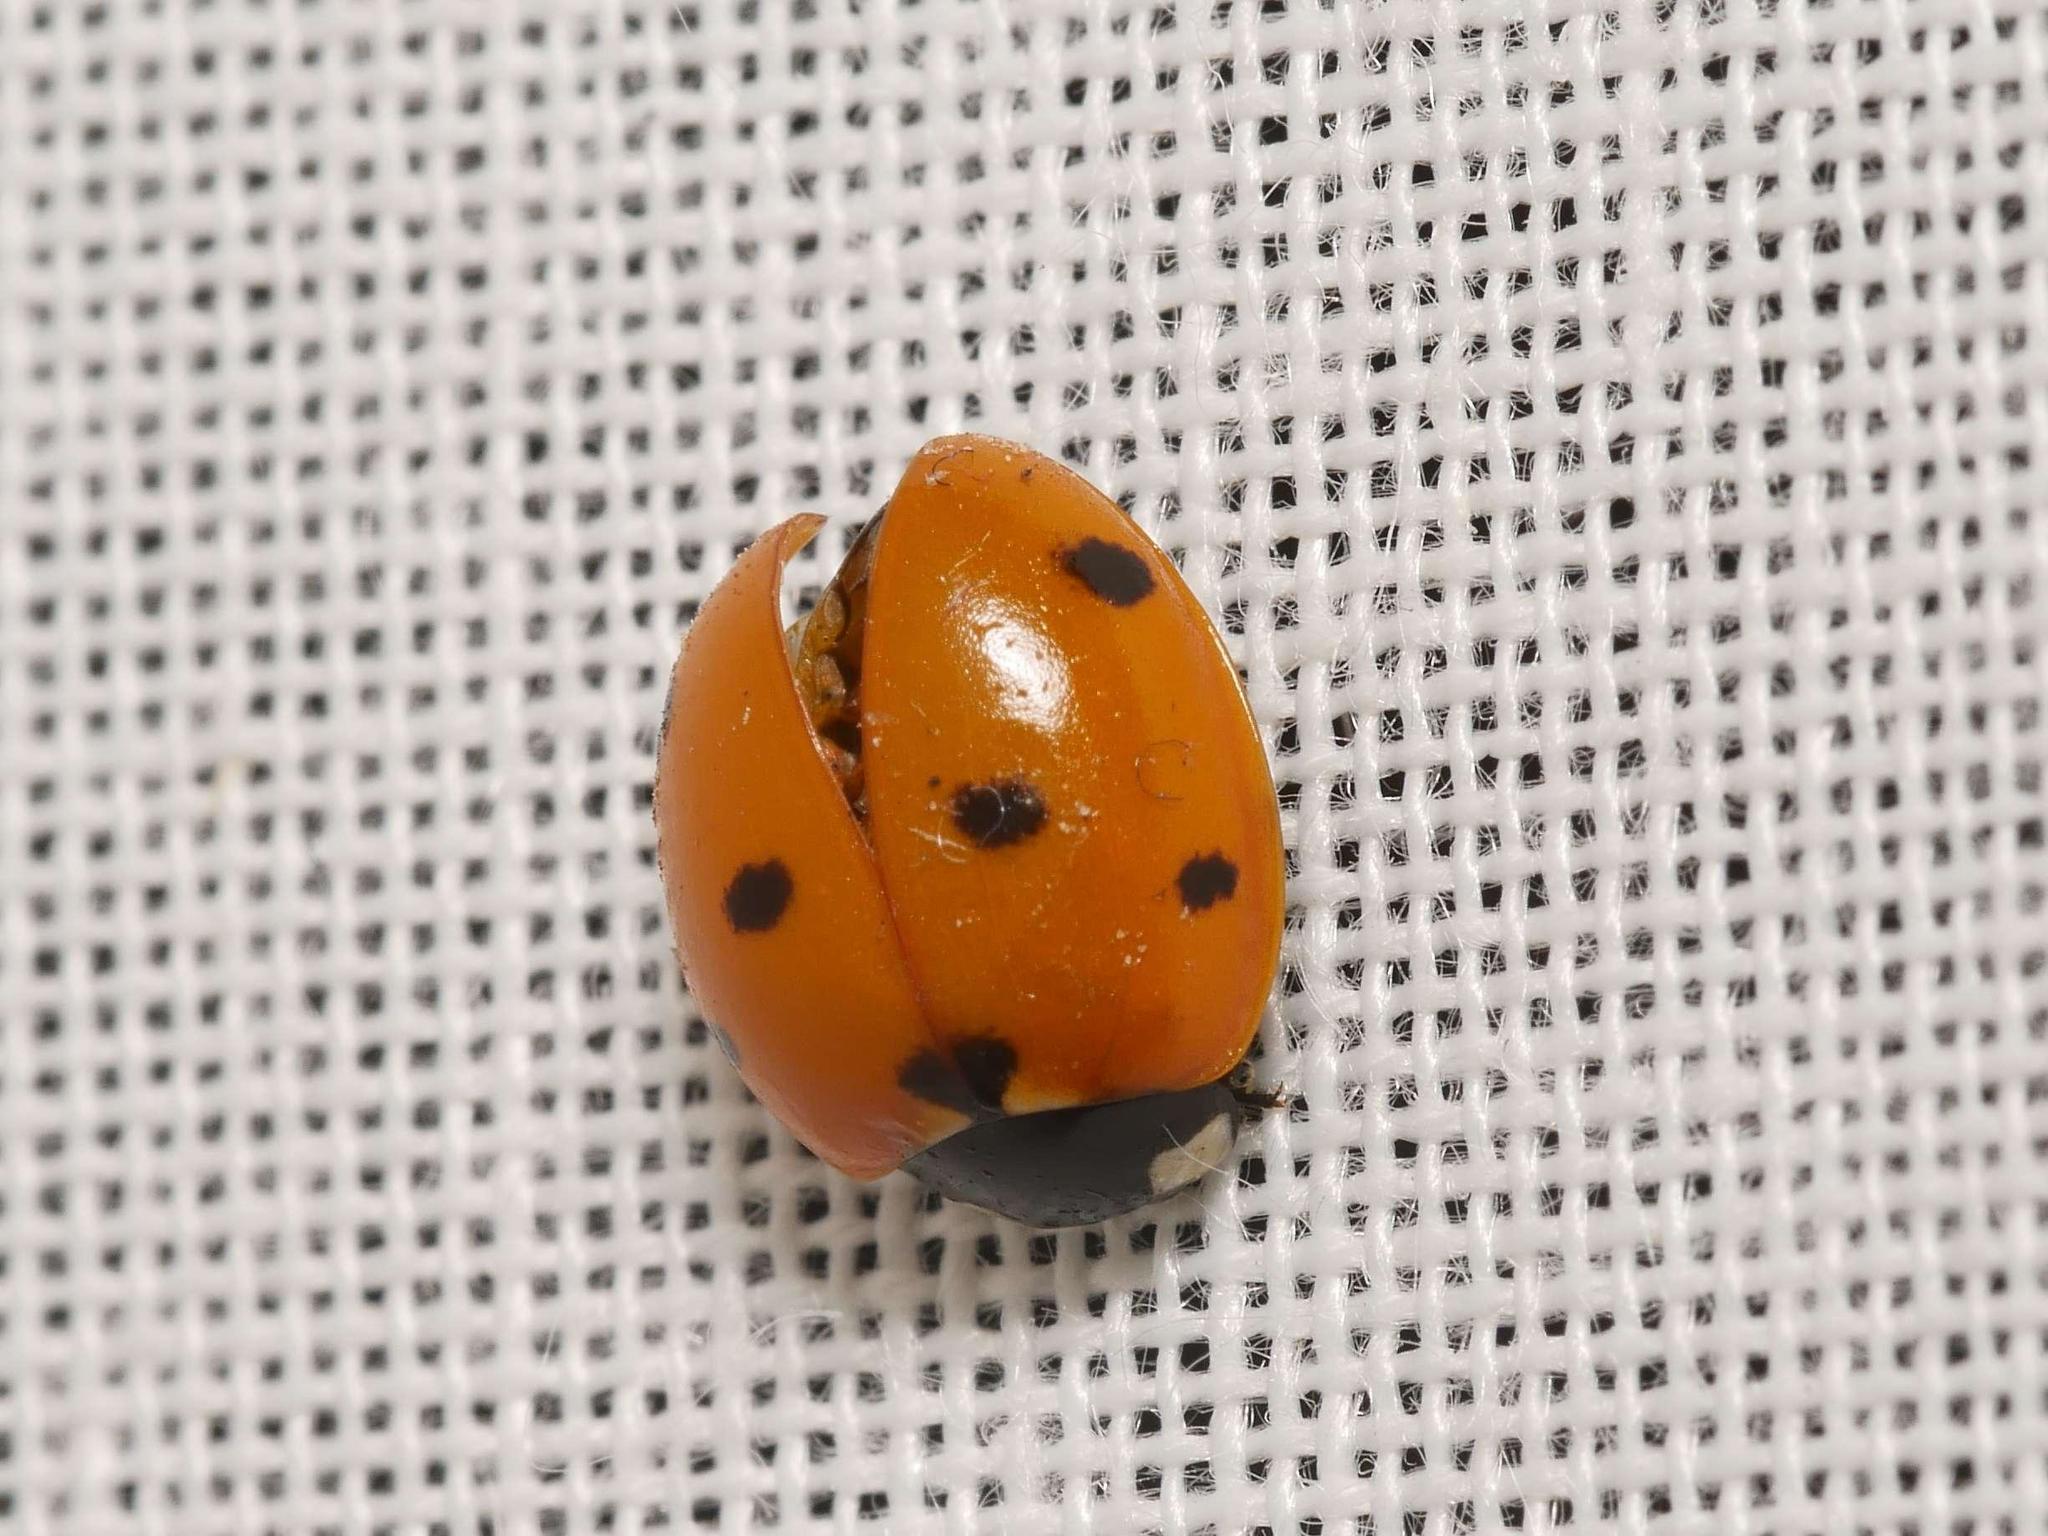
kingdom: Animalia
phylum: Arthropoda
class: Insecta
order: Coleoptera
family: Coccinellidae
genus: Coccinella
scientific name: Coccinella septempunctata
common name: Sevenspotted lady beetle
